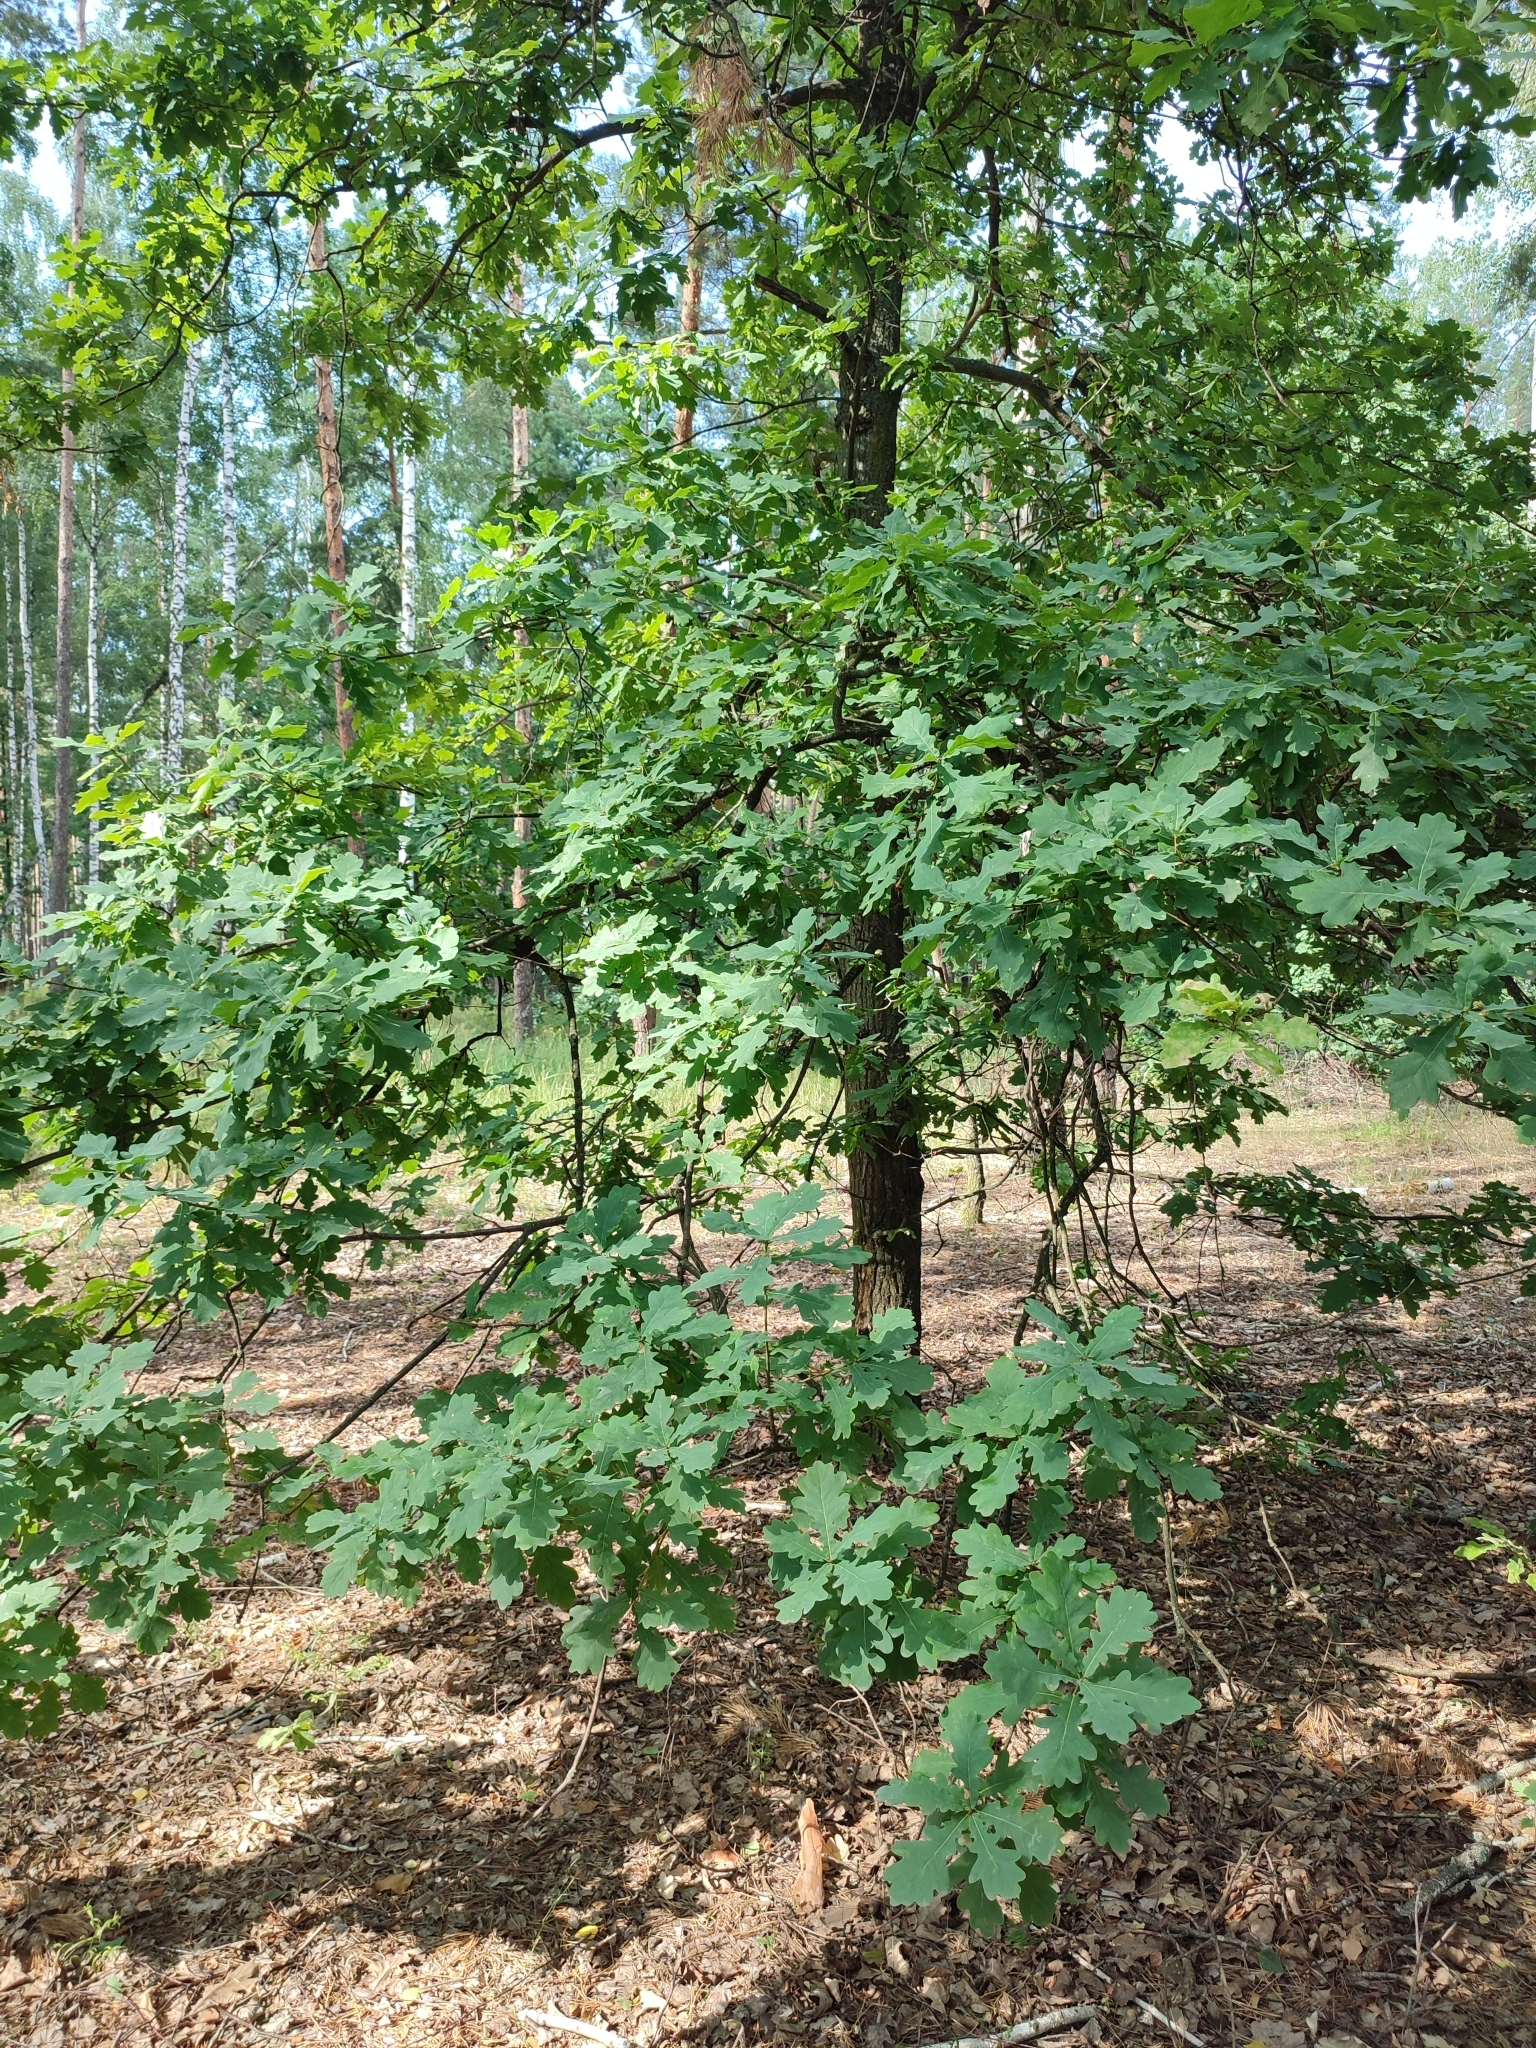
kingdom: Plantae
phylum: Tracheophyta
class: Magnoliopsida
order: Fagales
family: Fagaceae
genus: Quercus
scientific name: Quercus robur
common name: Pedunculate oak
